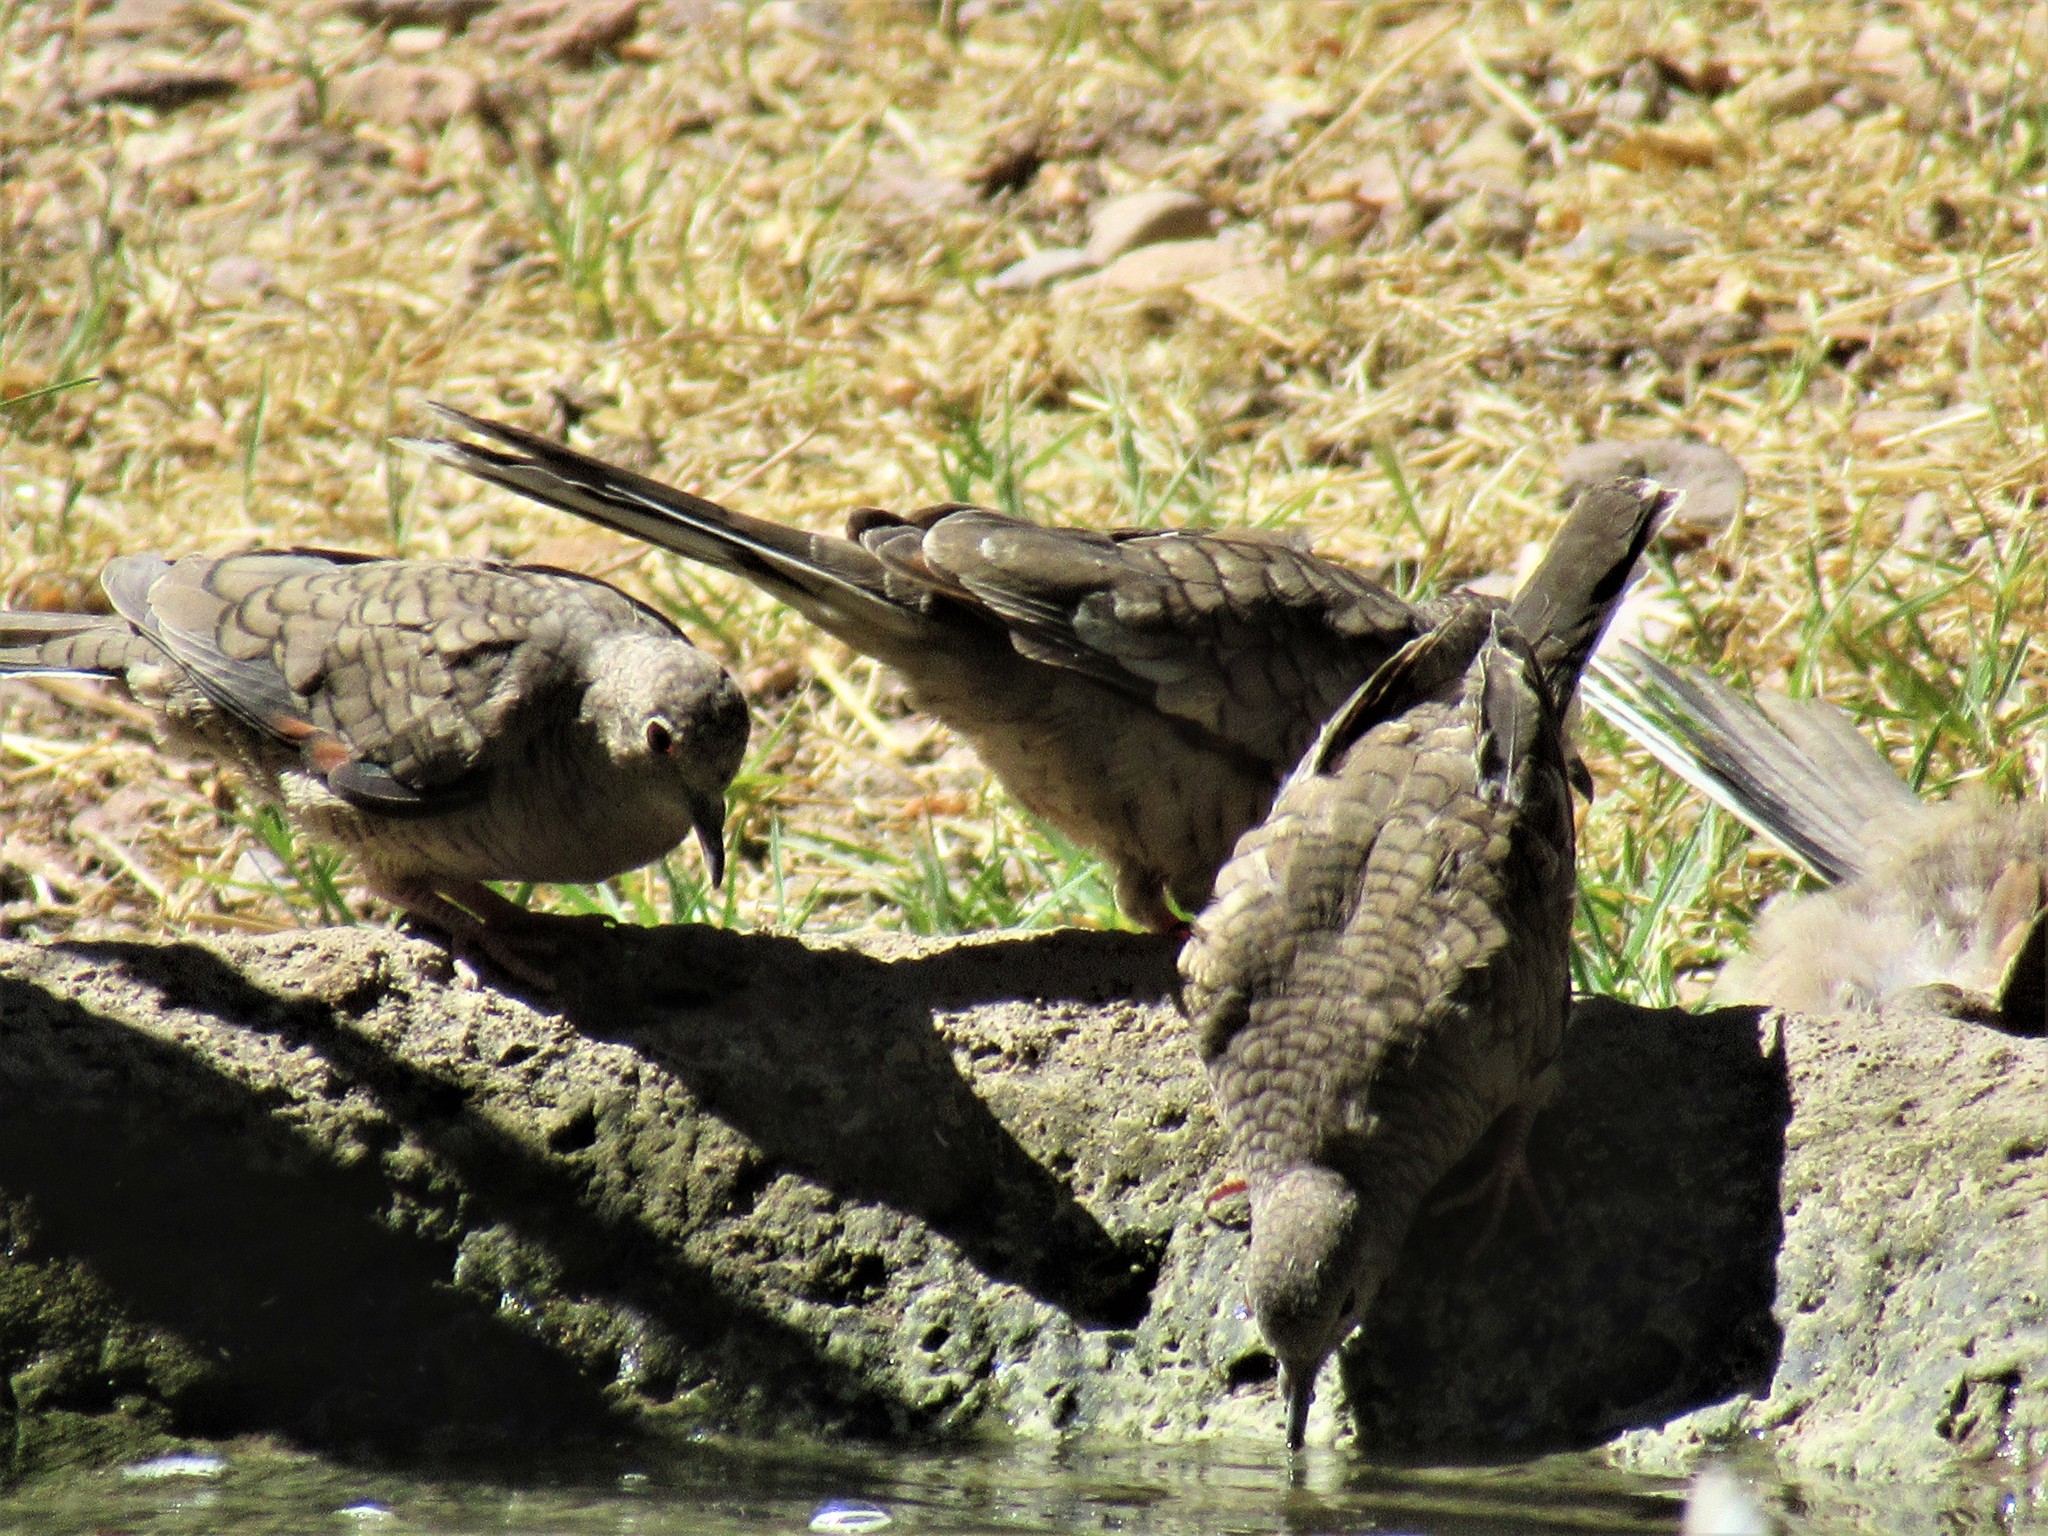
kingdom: Animalia
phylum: Chordata
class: Aves
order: Columbiformes
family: Columbidae
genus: Columbina
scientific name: Columbina inca
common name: Inca dove
